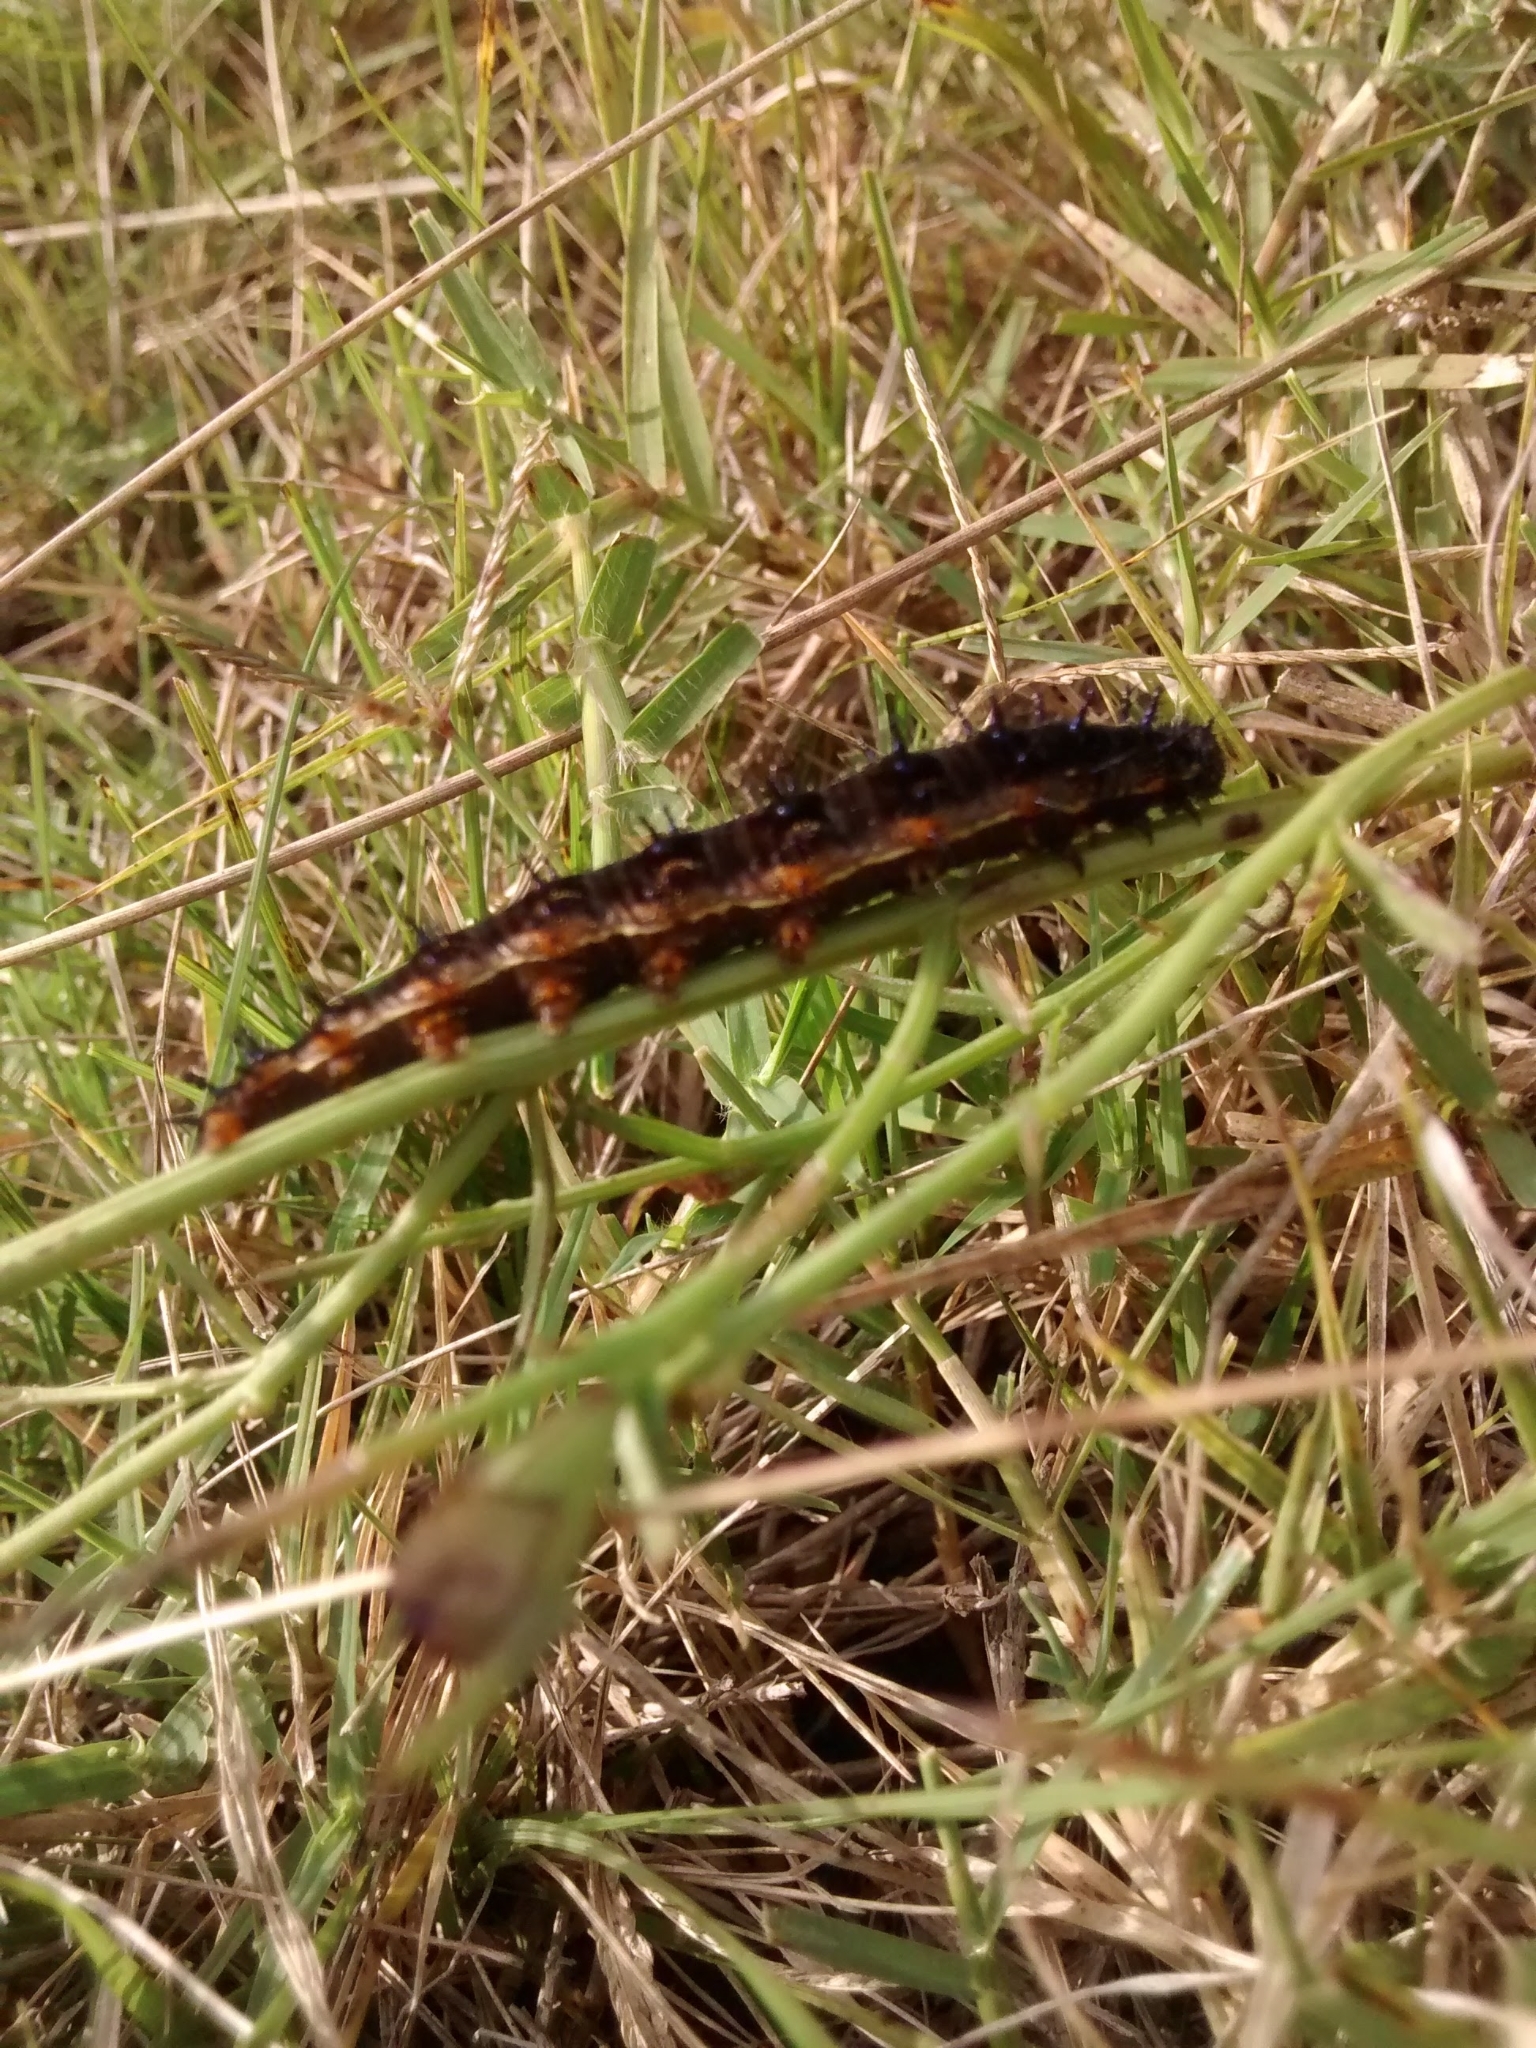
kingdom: Animalia
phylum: Arthropoda
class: Insecta
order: Lepidoptera
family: Nymphalidae
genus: Junonia
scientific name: Junonia lavinia
